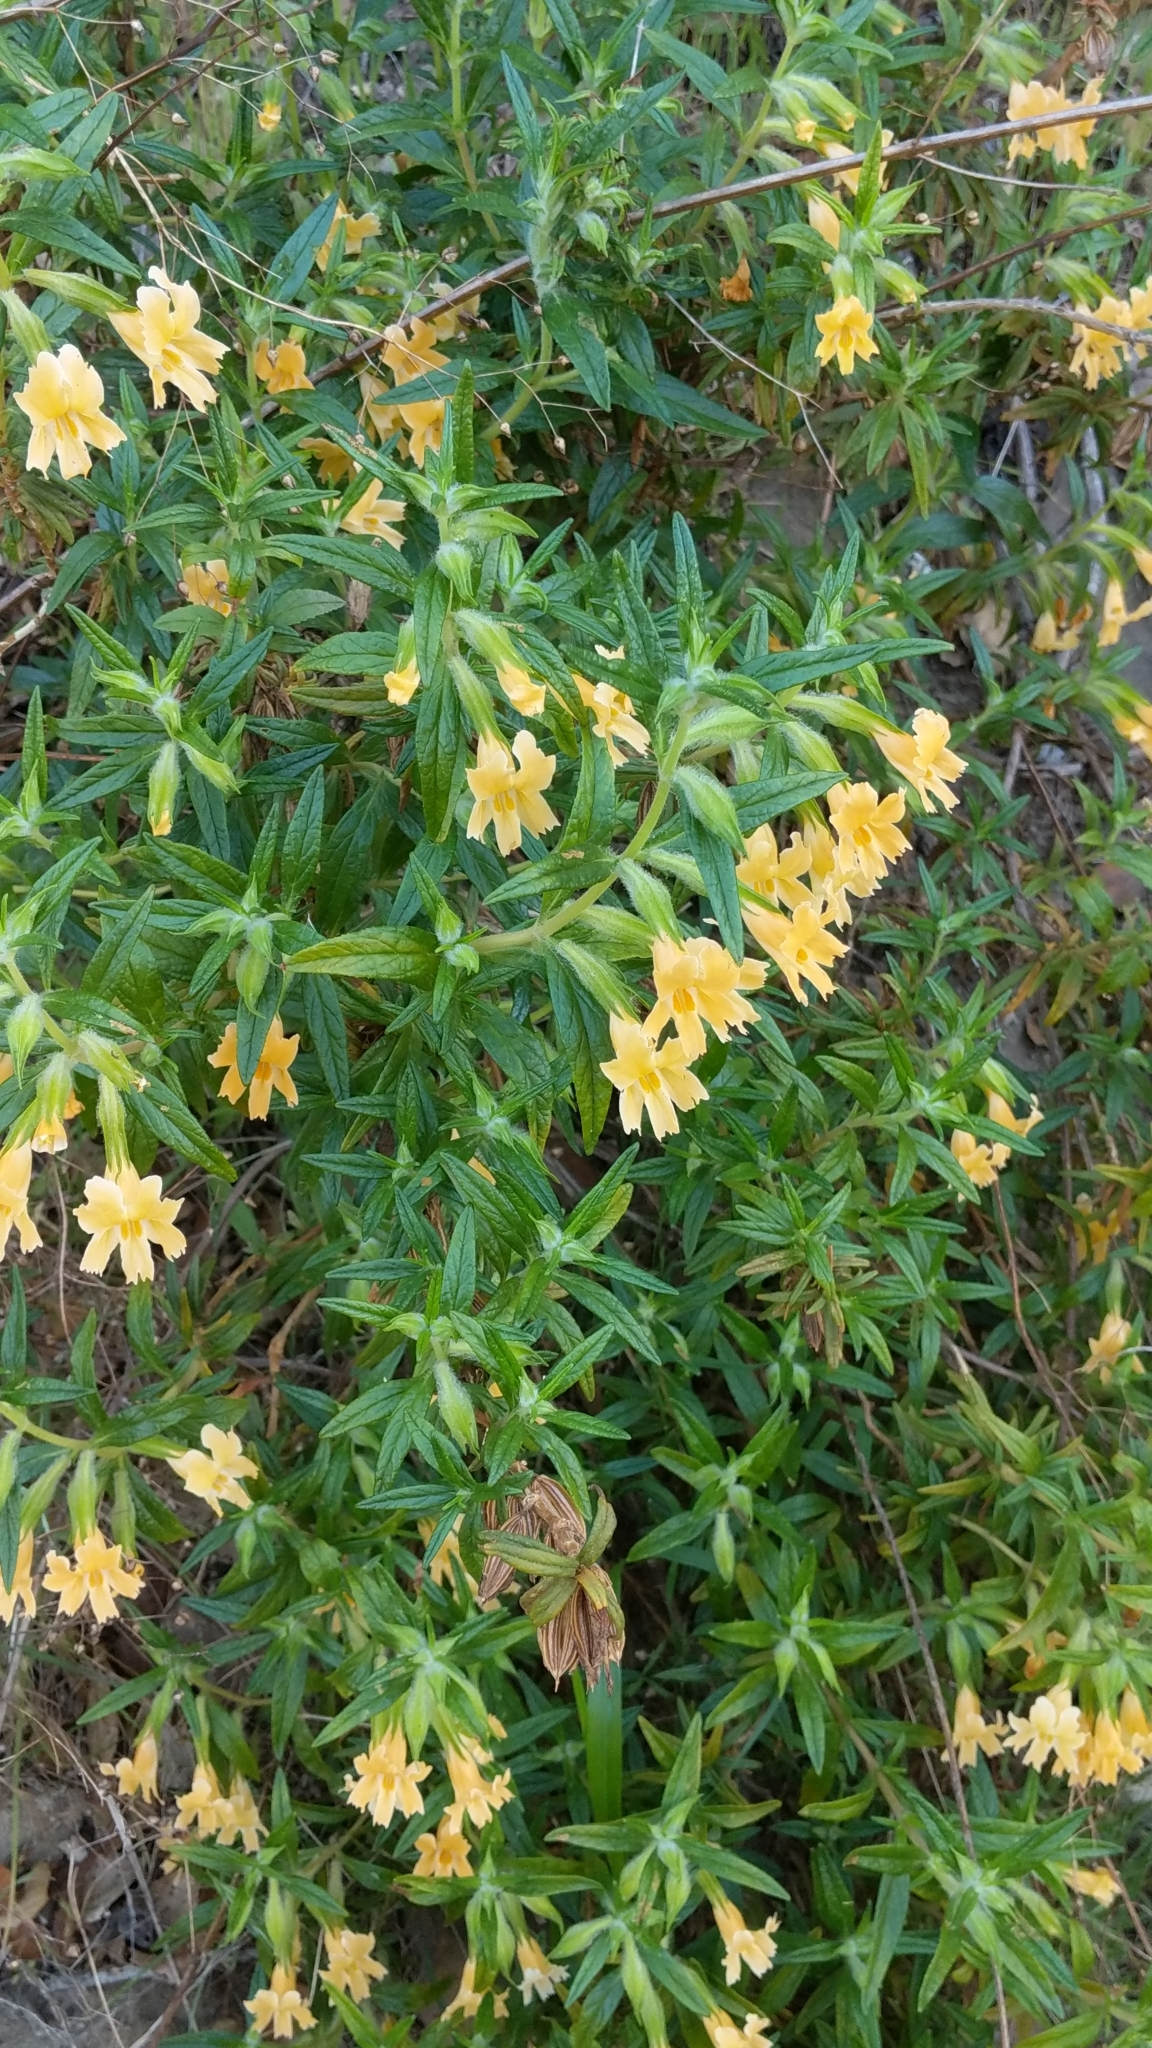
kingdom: Plantae
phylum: Tracheophyta
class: Magnoliopsida
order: Lamiales
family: Phrymaceae
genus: Diplacus
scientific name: Diplacus longiflorus
